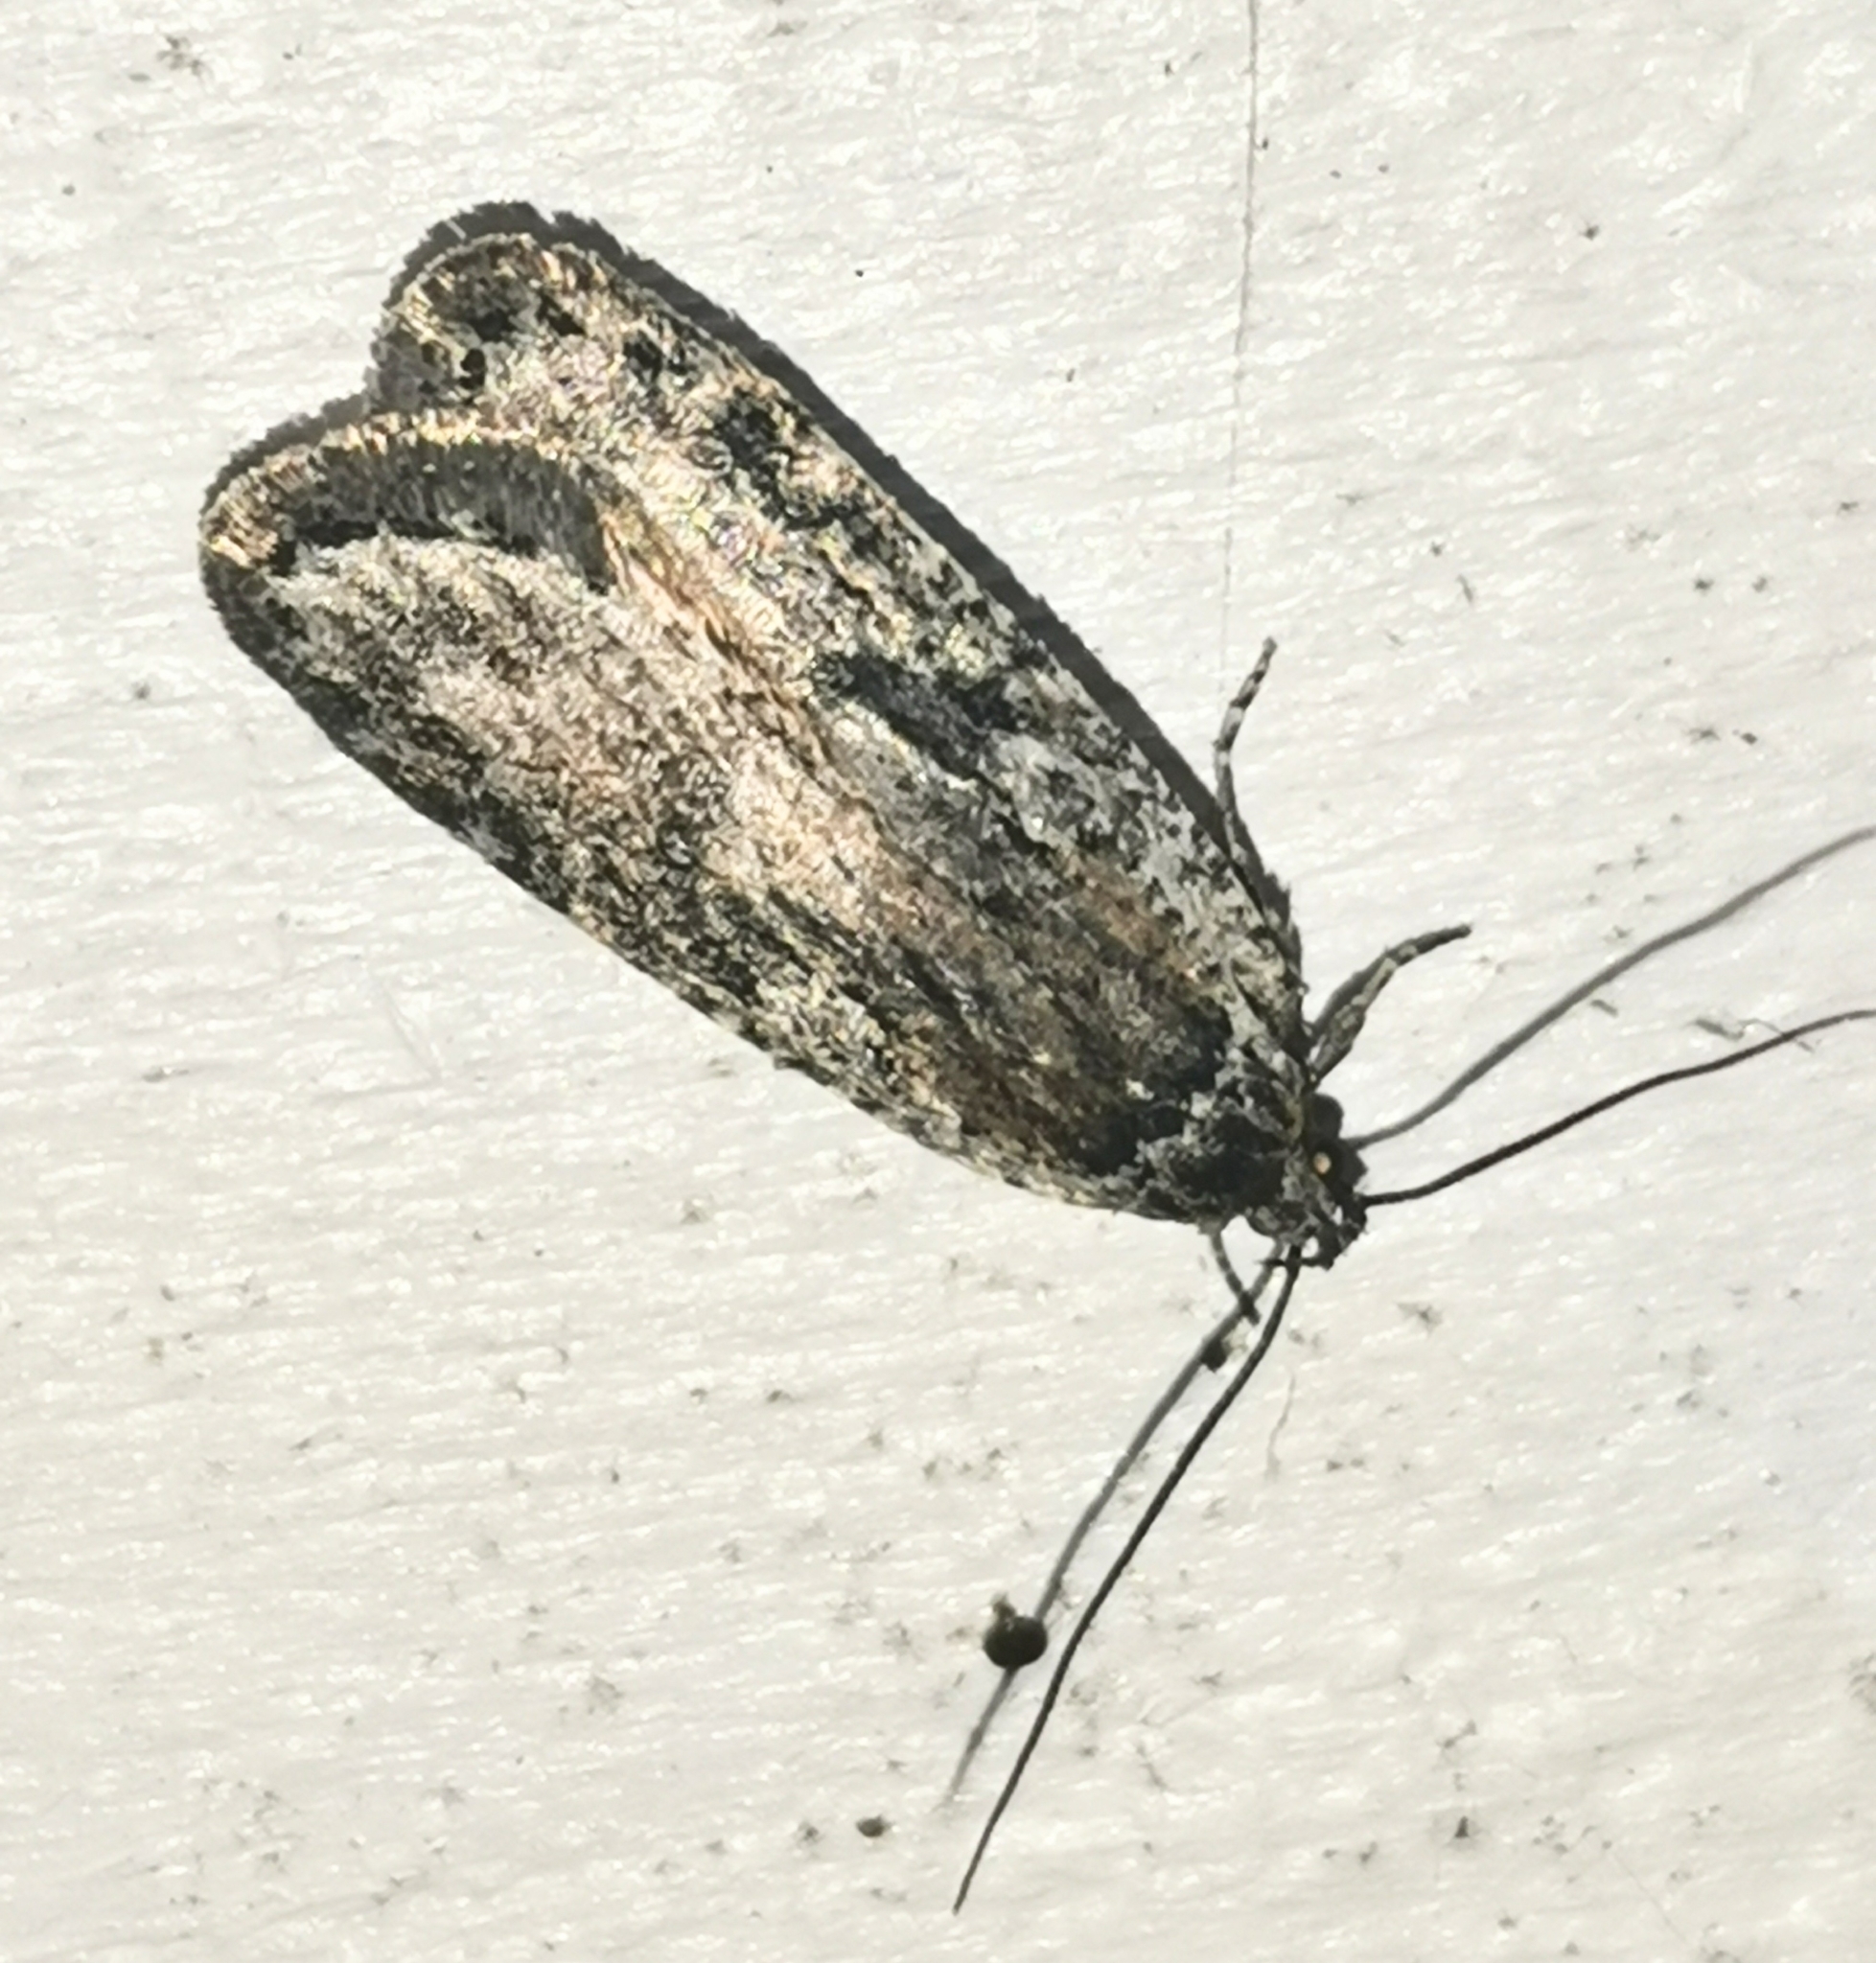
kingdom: Animalia
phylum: Arthropoda
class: Insecta
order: Lepidoptera
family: Depressariidae
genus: Exaeretia
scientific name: Exaeretia ciniflonella
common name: Scotch flat-body
